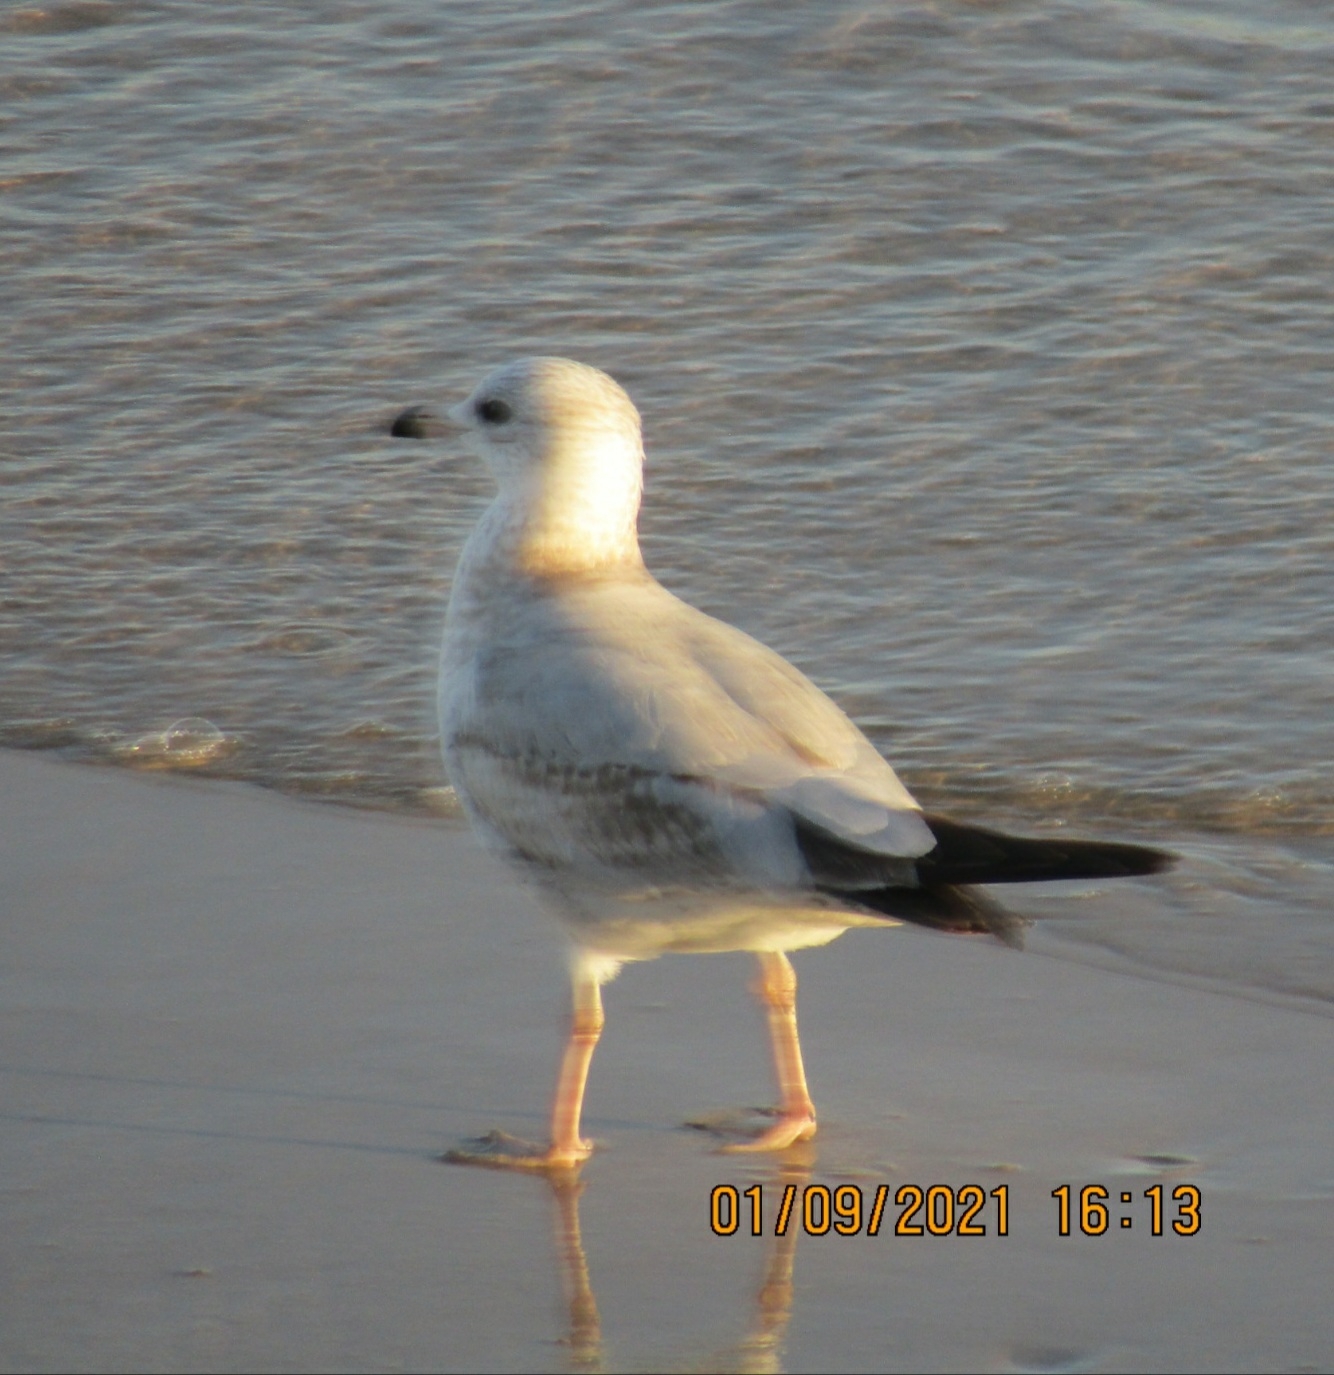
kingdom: Animalia
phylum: Chordata
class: Aves
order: Charadriiformes
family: Laridae
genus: Larus
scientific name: Larus delawarensis
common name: Ring-billed gull
